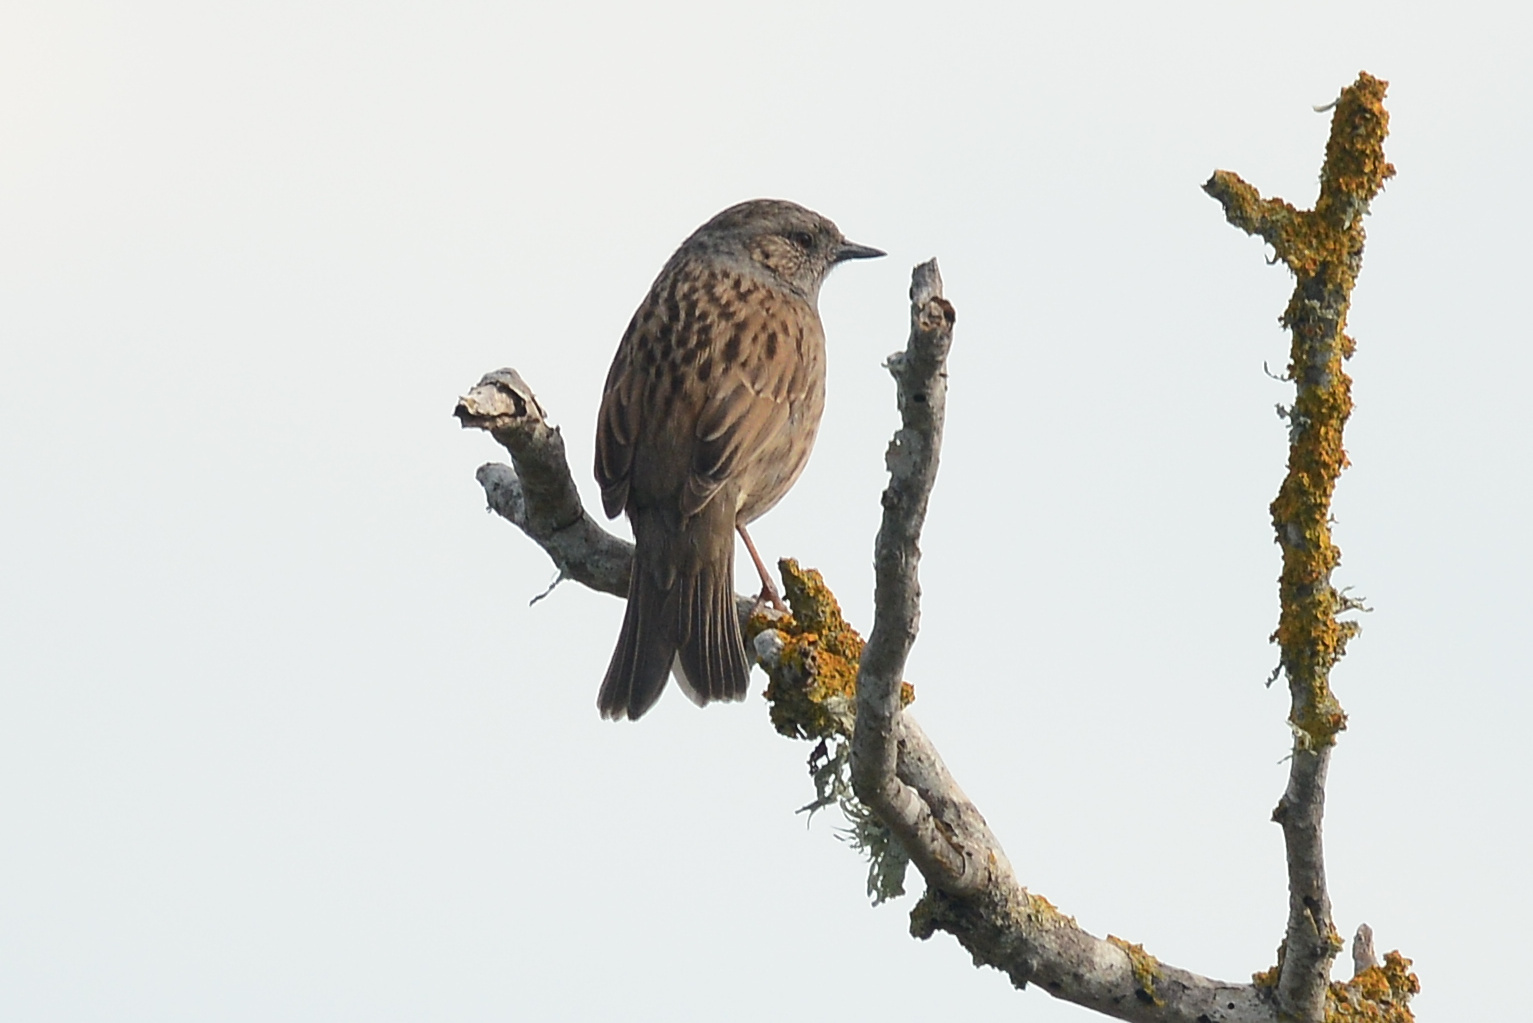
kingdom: Animalia
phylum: Chordata
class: Aves
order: Passeriformes
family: Prunellidae
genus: Prunella
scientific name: Prunella modularis
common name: Dunnock
